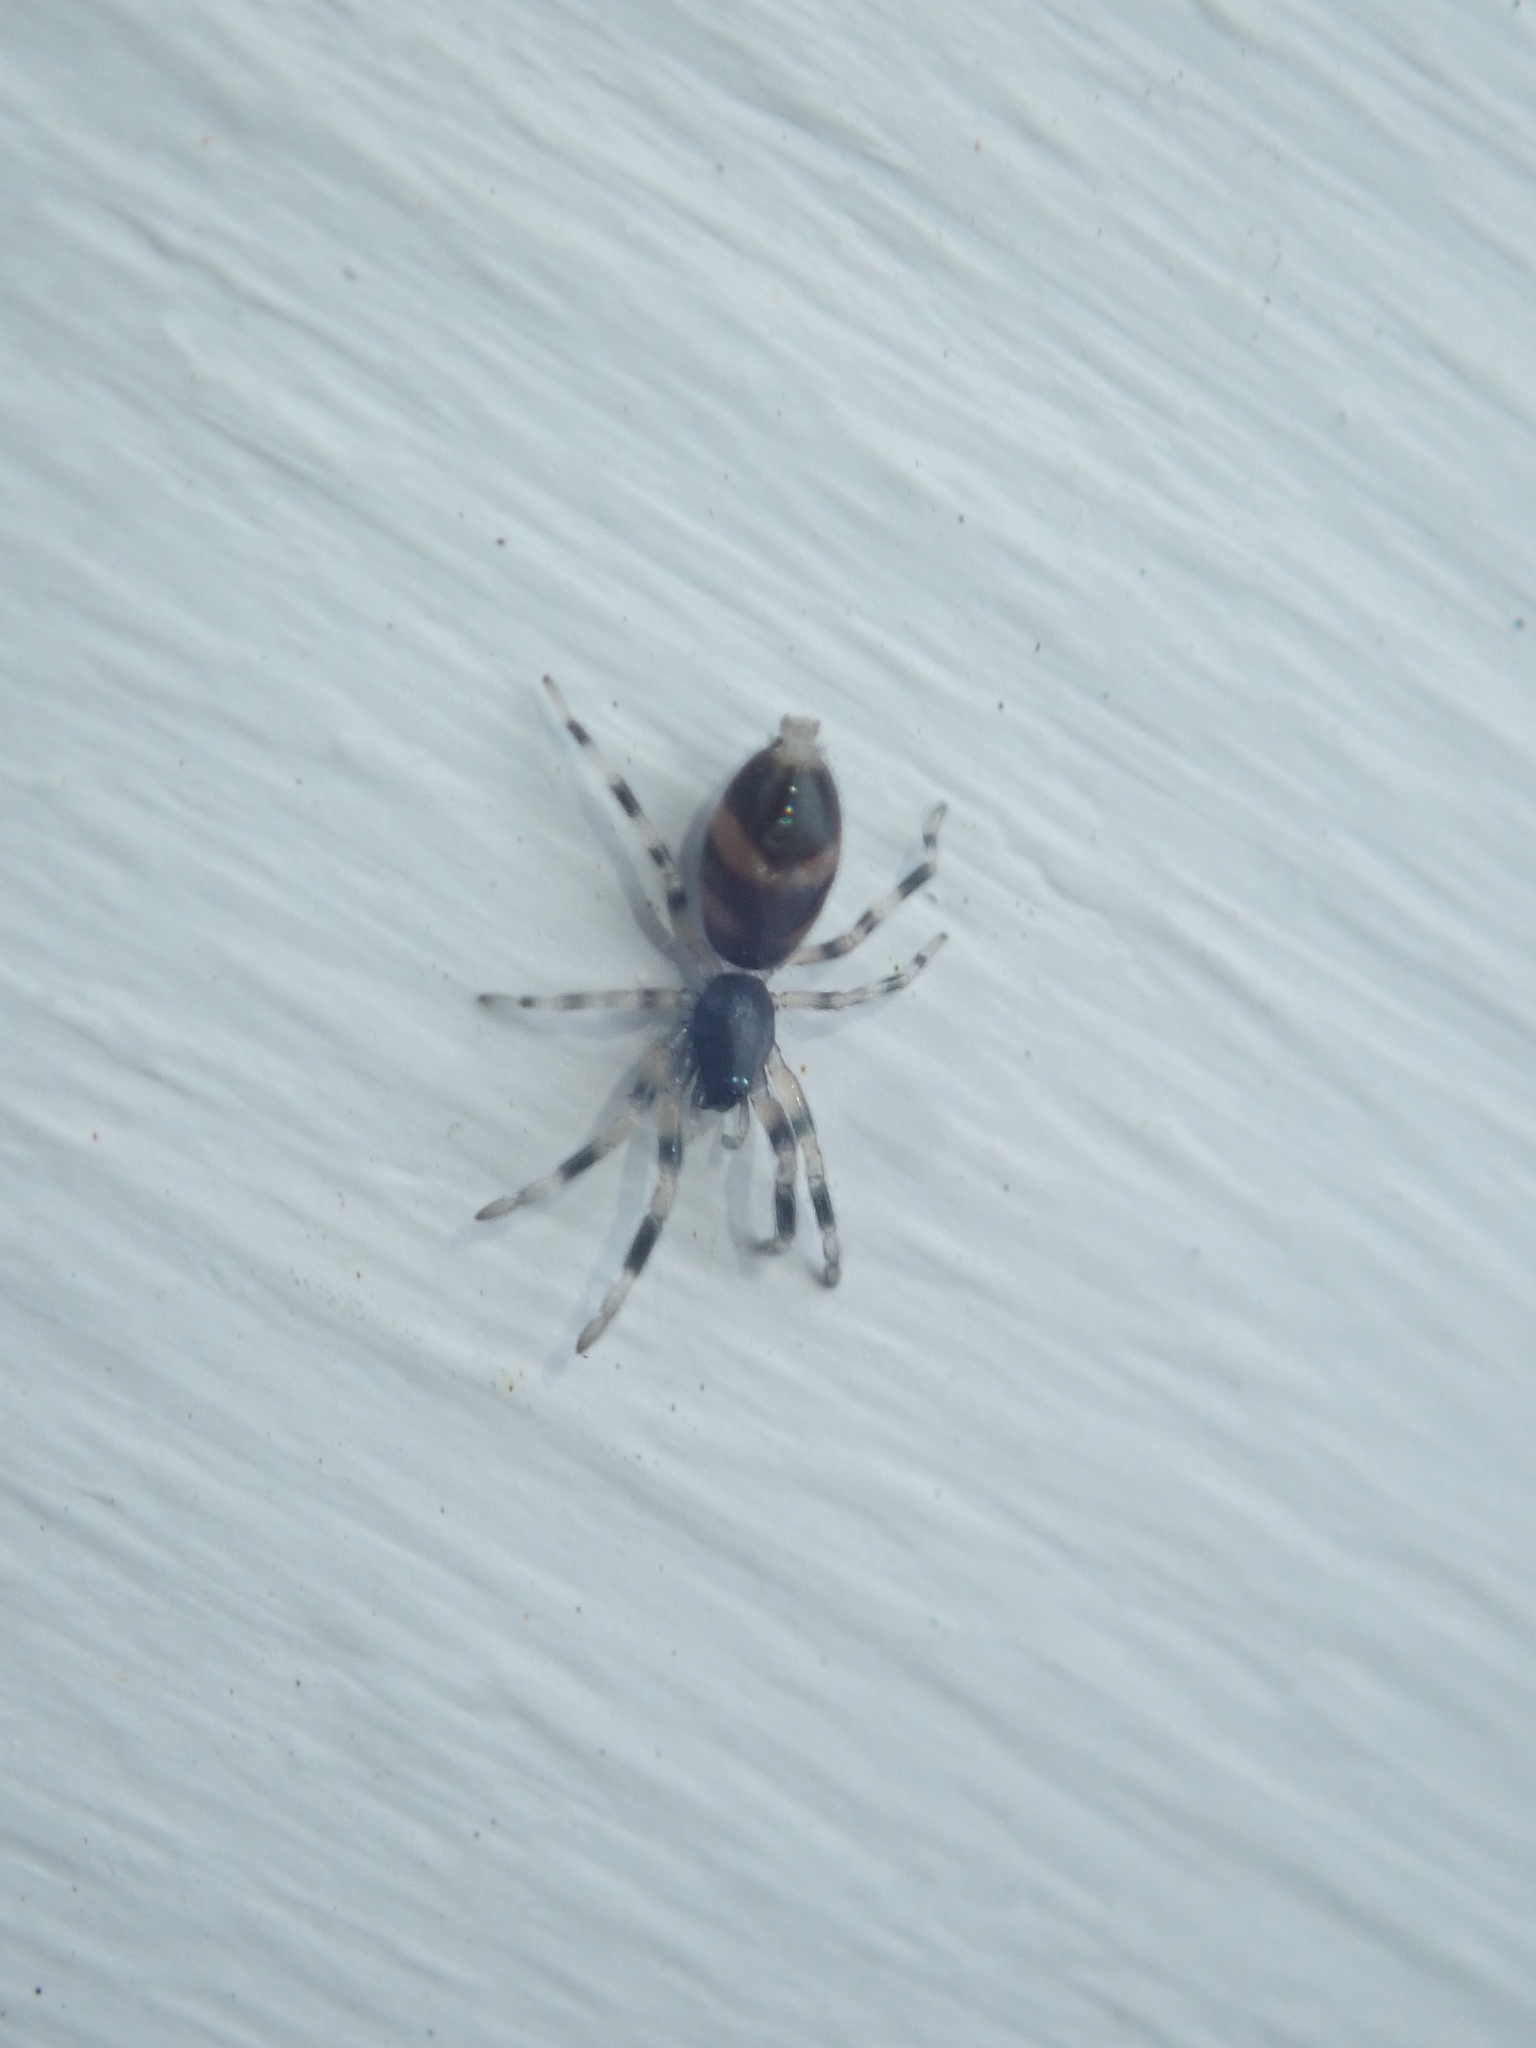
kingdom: Animalia
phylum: Arthropoda
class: Arachnida
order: Araneae
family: Lamponidae
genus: Lampona
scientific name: Lampona murina
